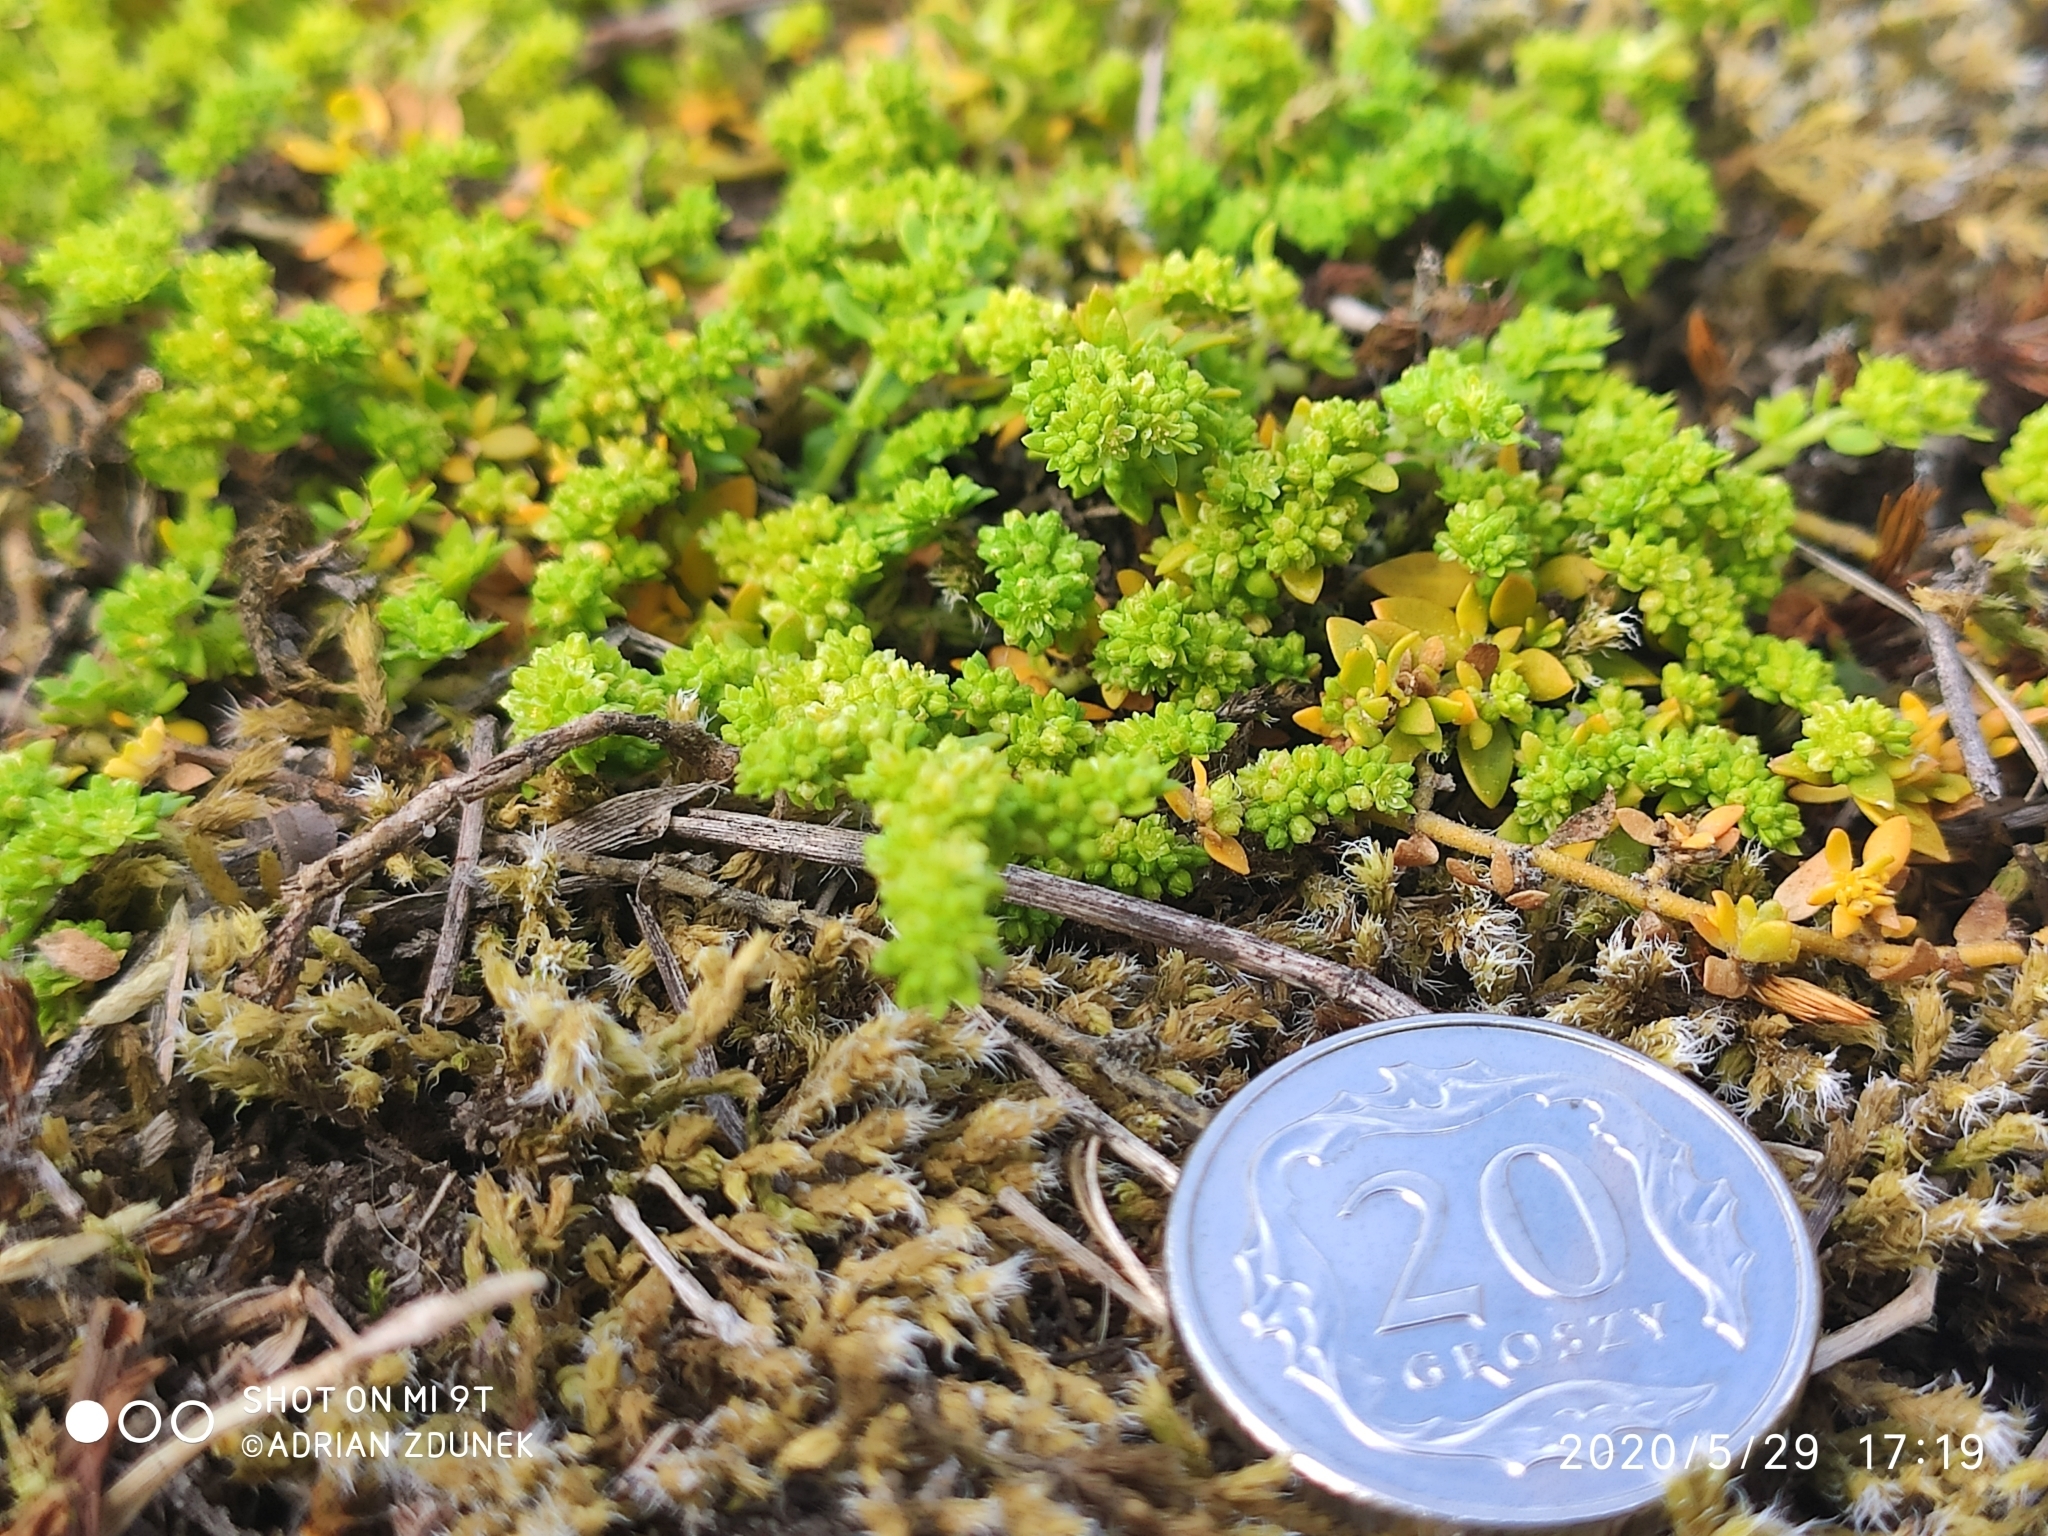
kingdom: Plantae
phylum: Tracheophyta
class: Magnoliopsida
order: Caryophyllales
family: Caryophyllaceae
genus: Herniaria
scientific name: Herniaria glabra
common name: Smooth rupturewort
